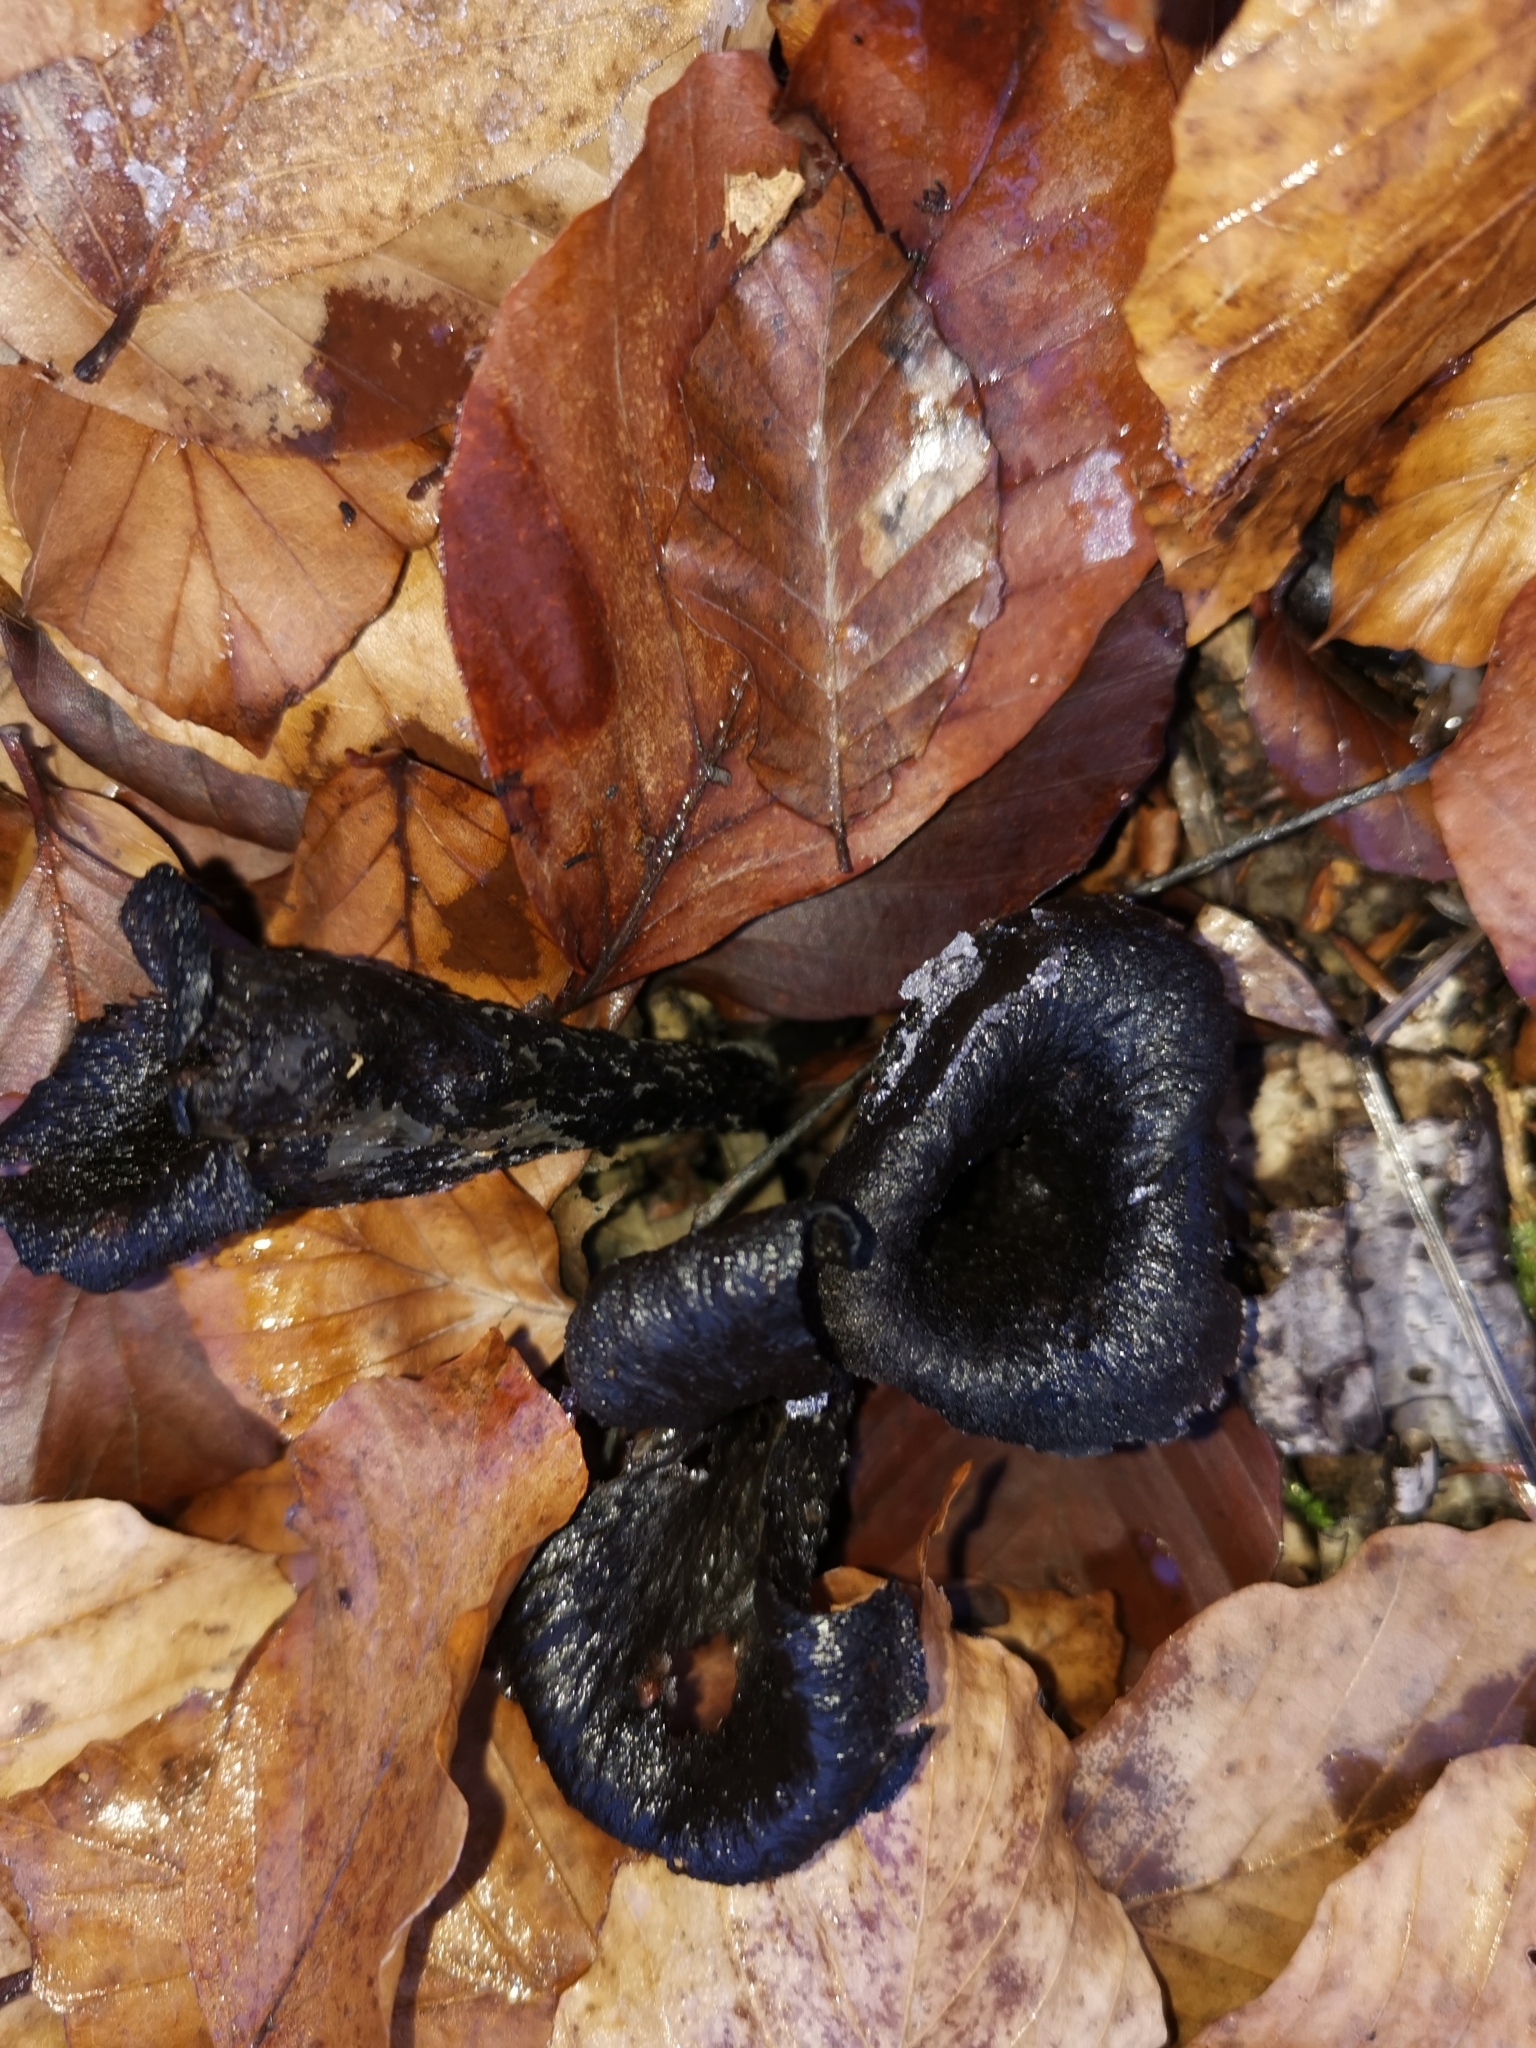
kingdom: Fungi
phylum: Basidiomycota
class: Agaricomycetes
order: Cantharellales
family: Hydnaceae
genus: Craterellus
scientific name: Craterellus cornucopioides
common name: Horn of plenty
